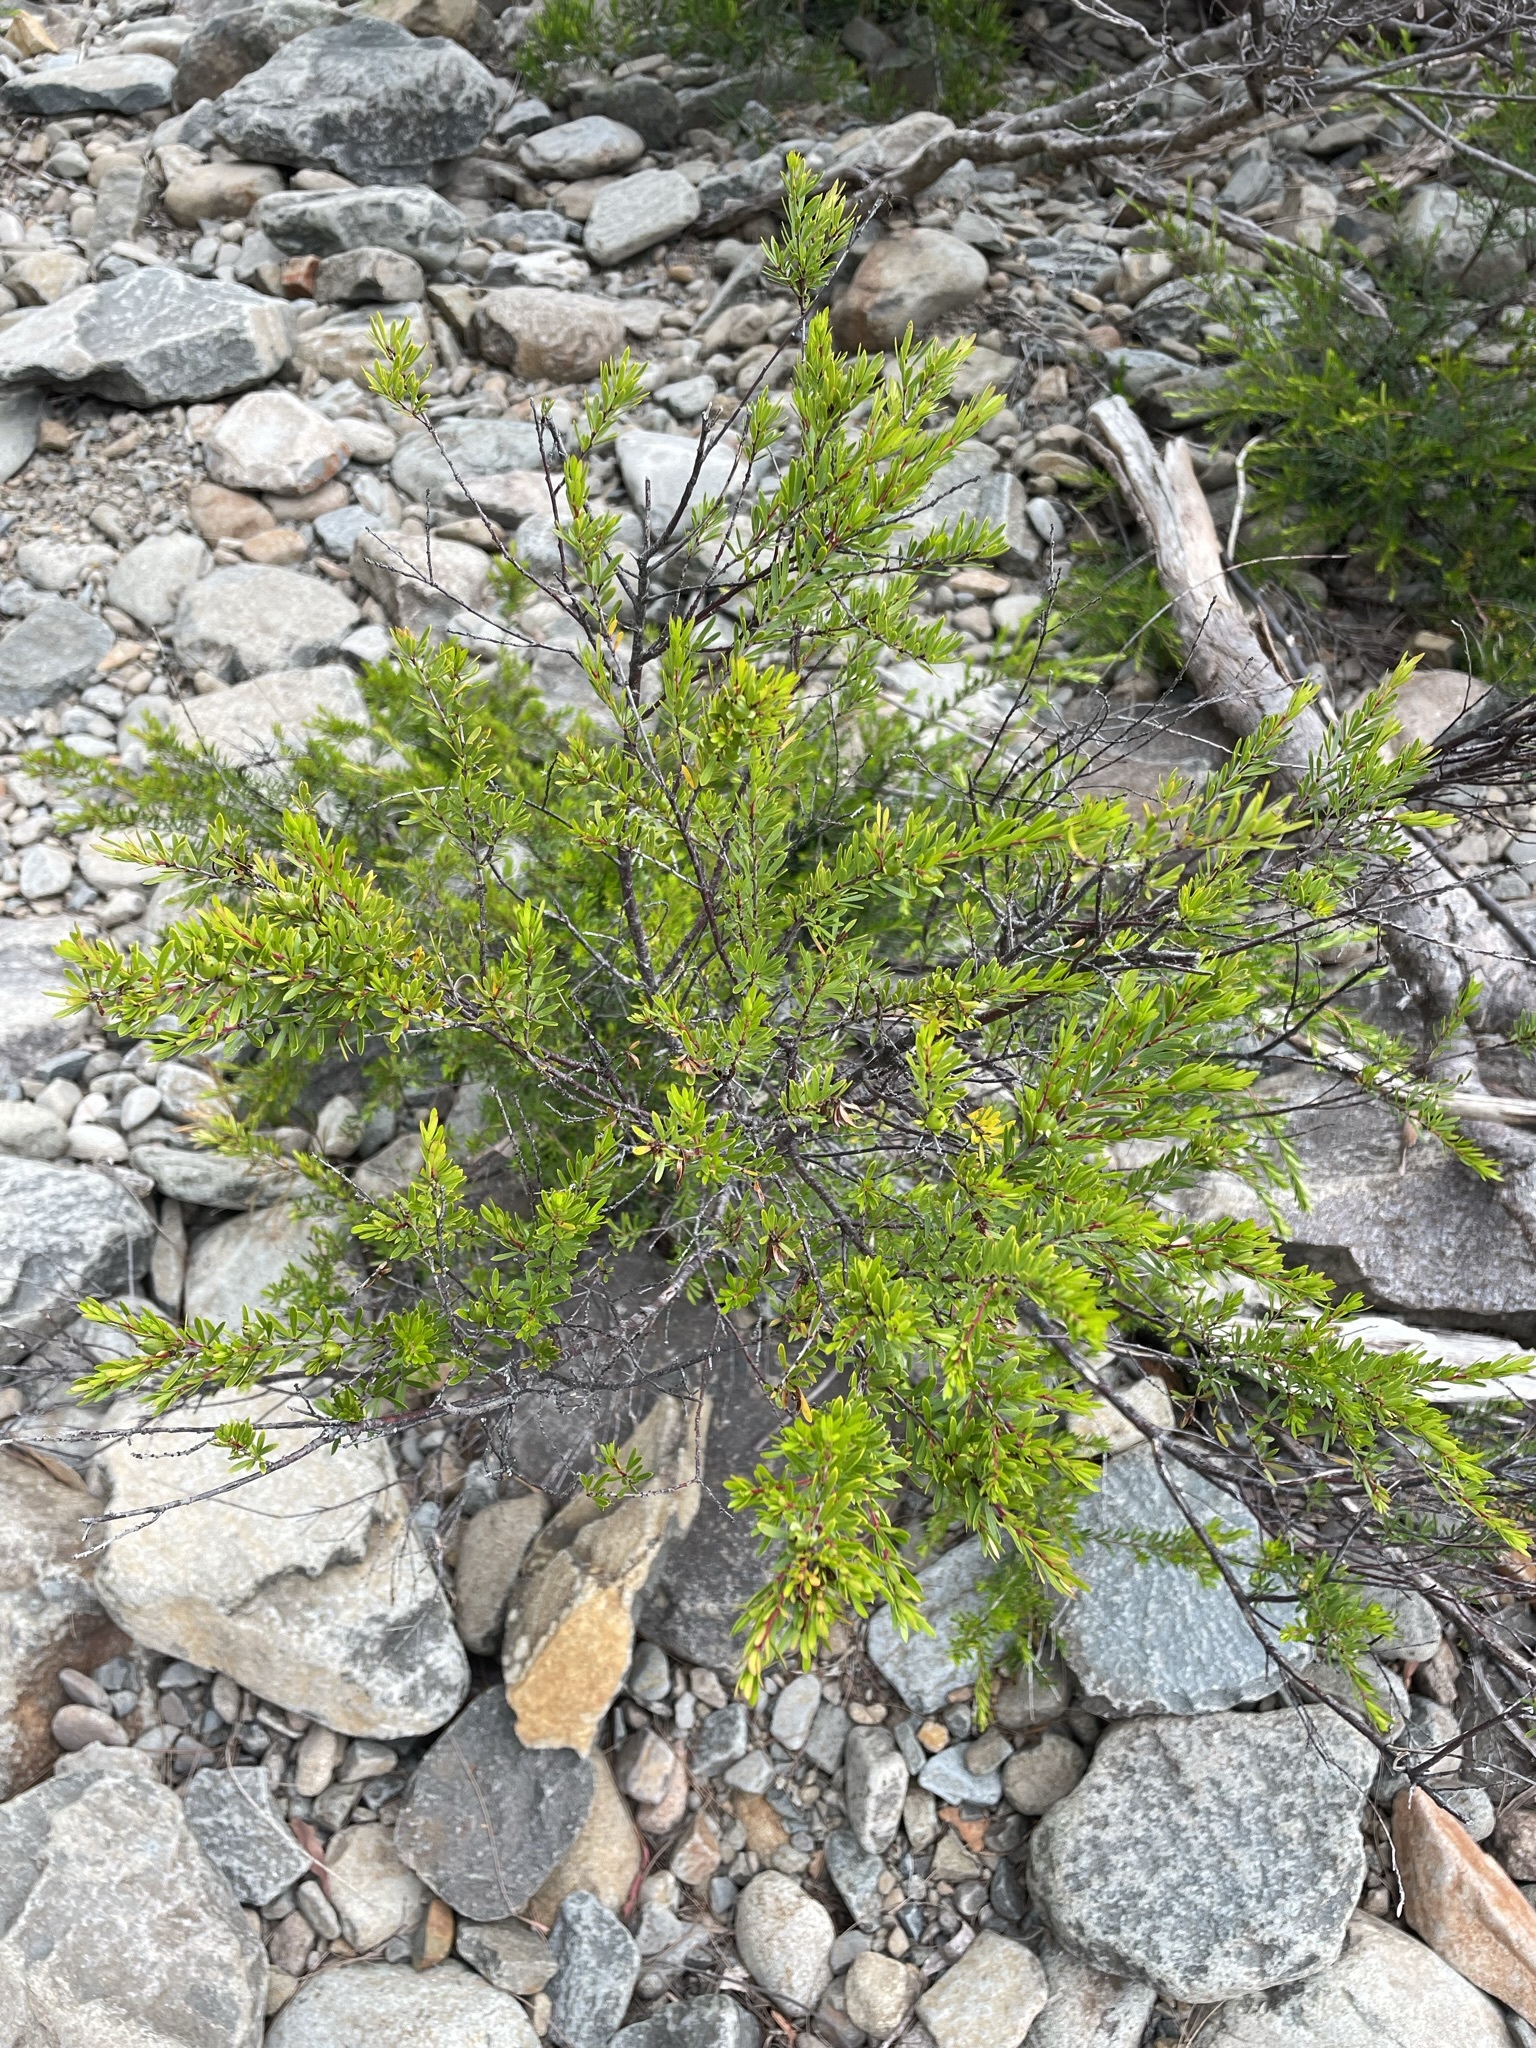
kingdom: Plantae
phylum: Tracheophyta
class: Magnoliopsida
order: Malpighiales
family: Picrodendraceae
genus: Micrantheum
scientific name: Micrantheum hexandrum
